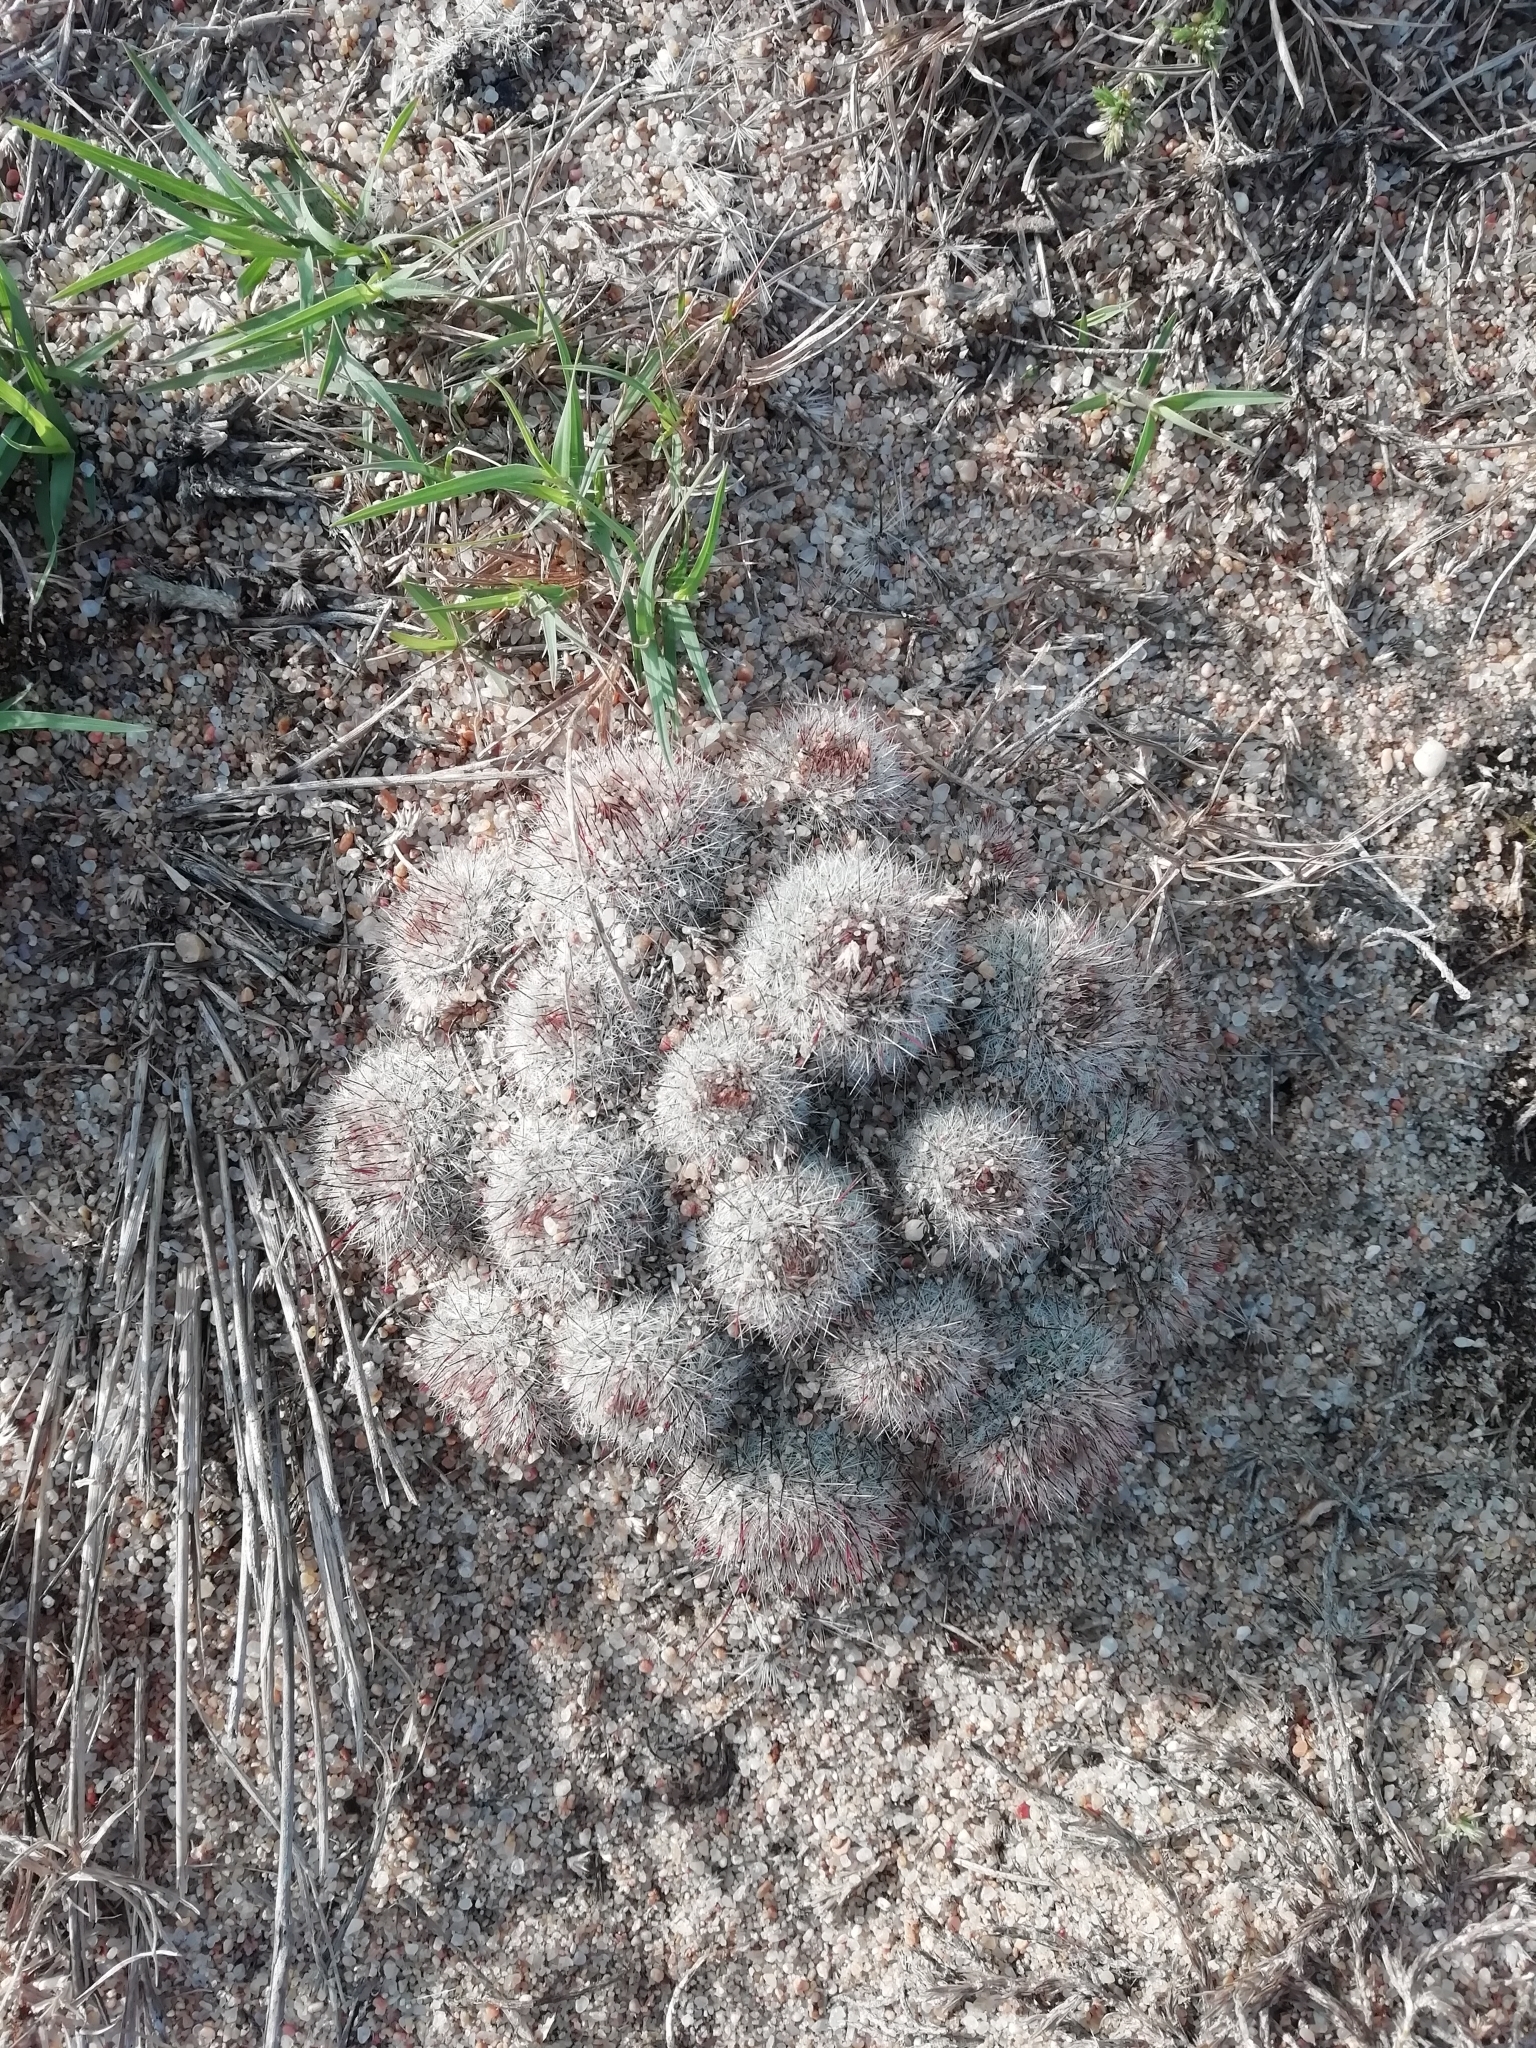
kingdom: Plantae
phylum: Tracheophyta
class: Magnoliopsida
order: Caryophyllales
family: Cactaceae
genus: Parodia
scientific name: Parodia scopa
